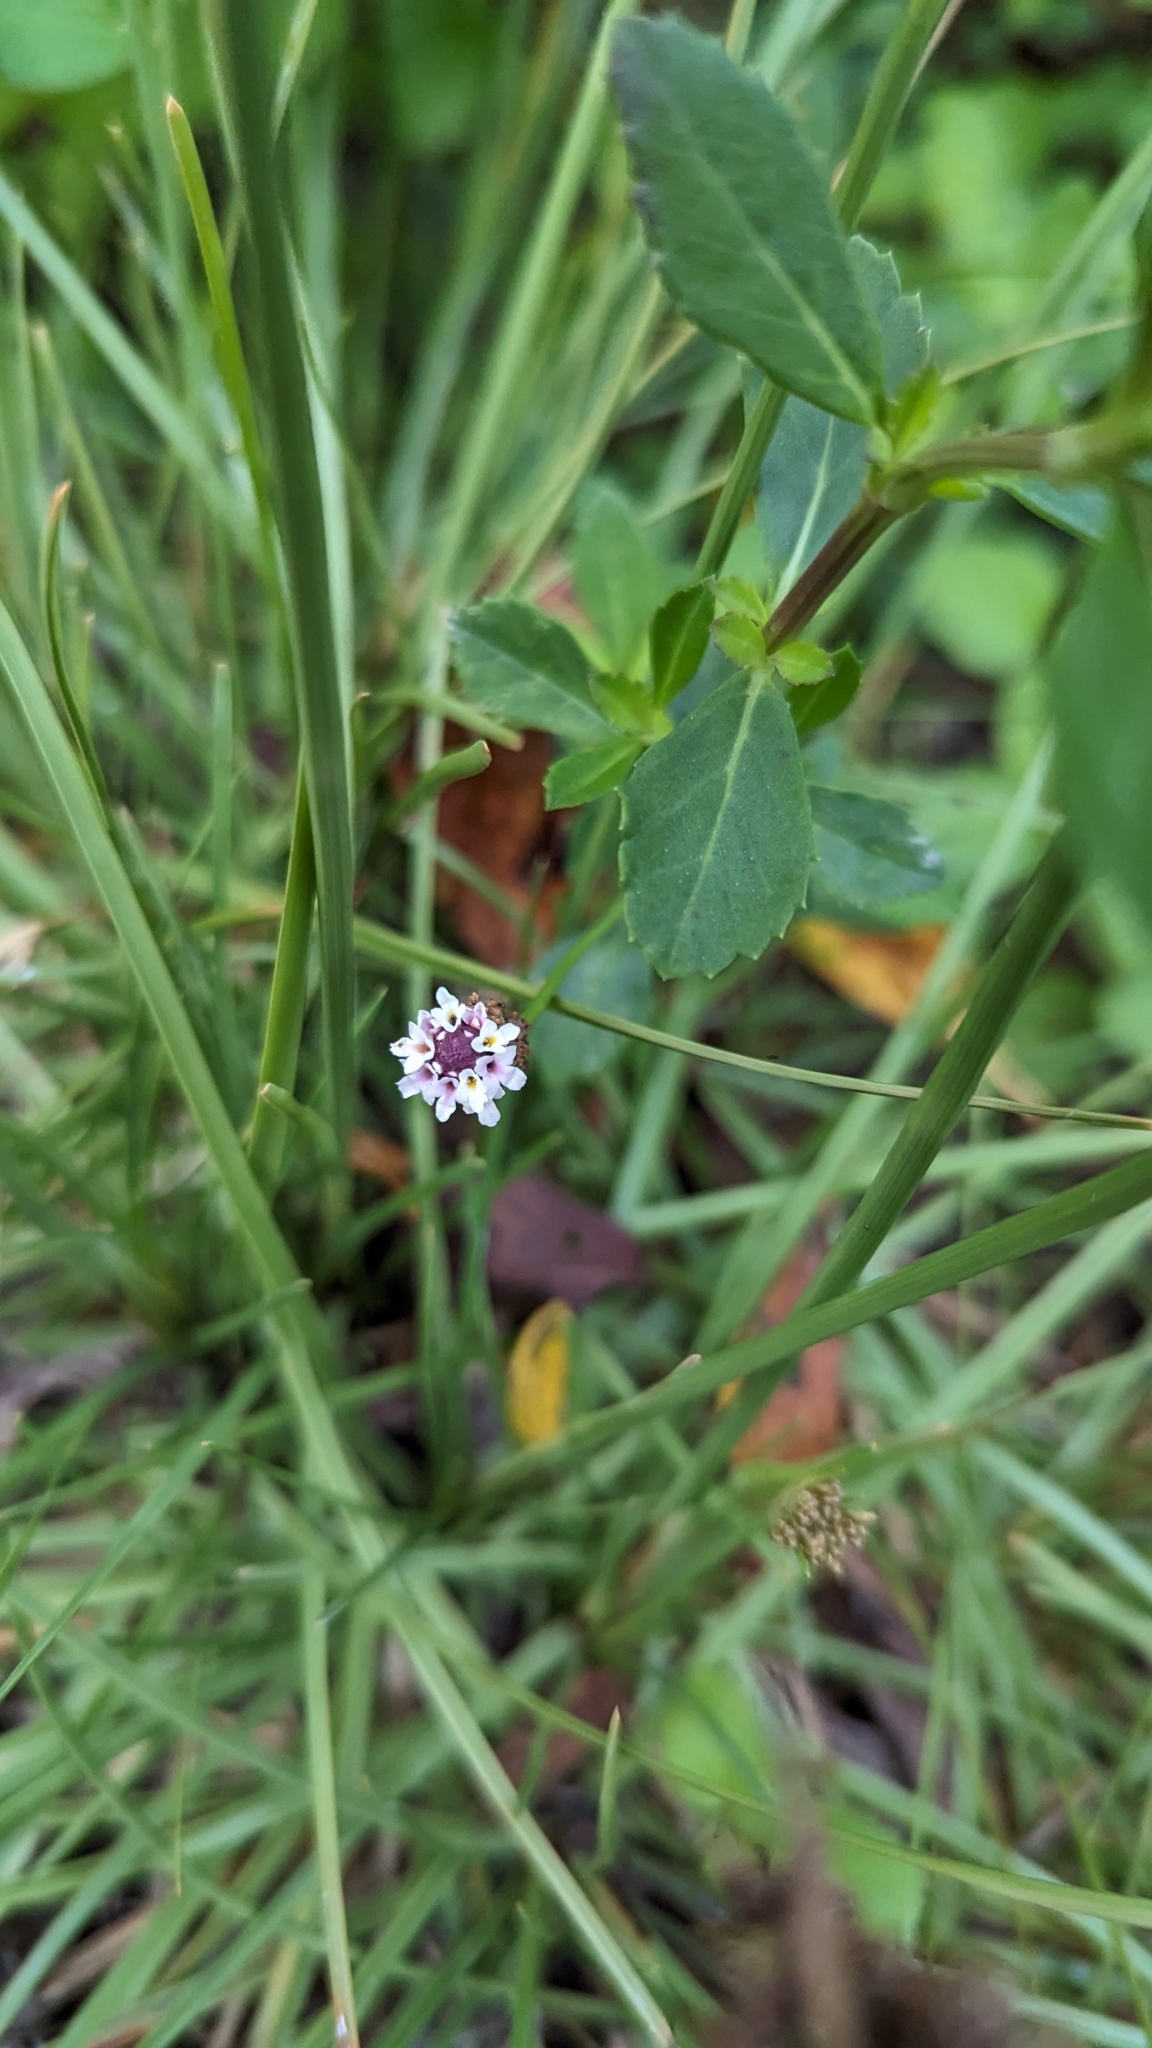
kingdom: Plantae
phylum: Tracheophyta
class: Magnoliopsida
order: Lamiales
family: Verbenaceae
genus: Phyla
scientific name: Phyla nodiflora
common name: Frogfruit
